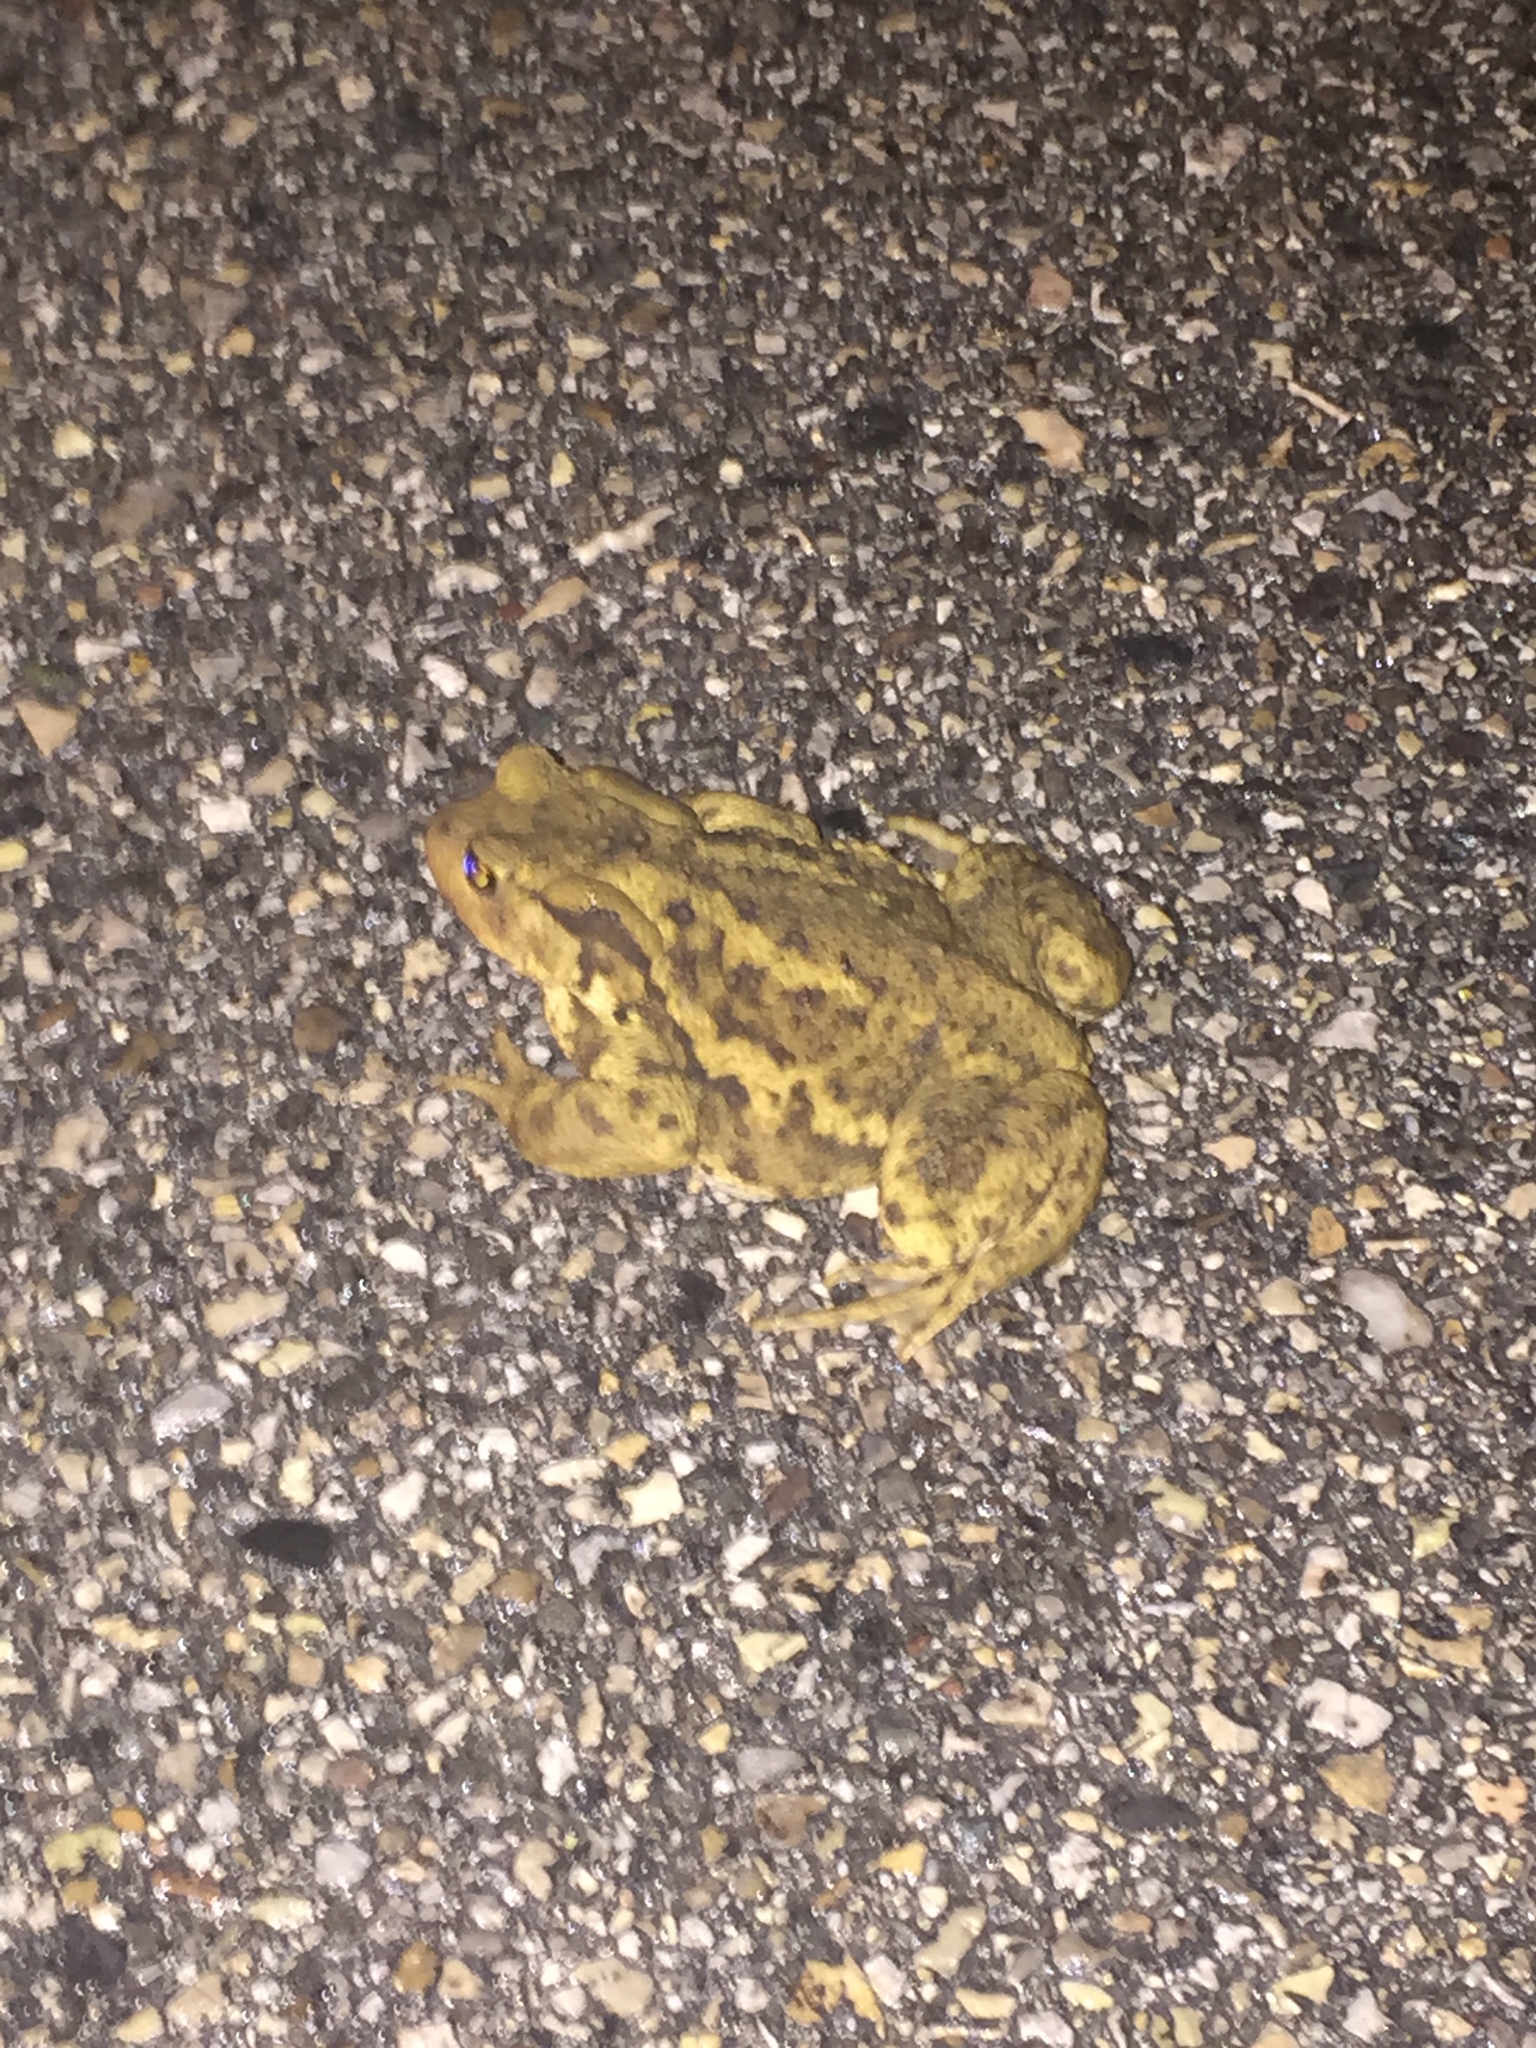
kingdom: Animalia
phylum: Chordata
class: Amphibia
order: Anura
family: Bufonidae
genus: Bufo
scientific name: Bufo bufo
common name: Common toad
